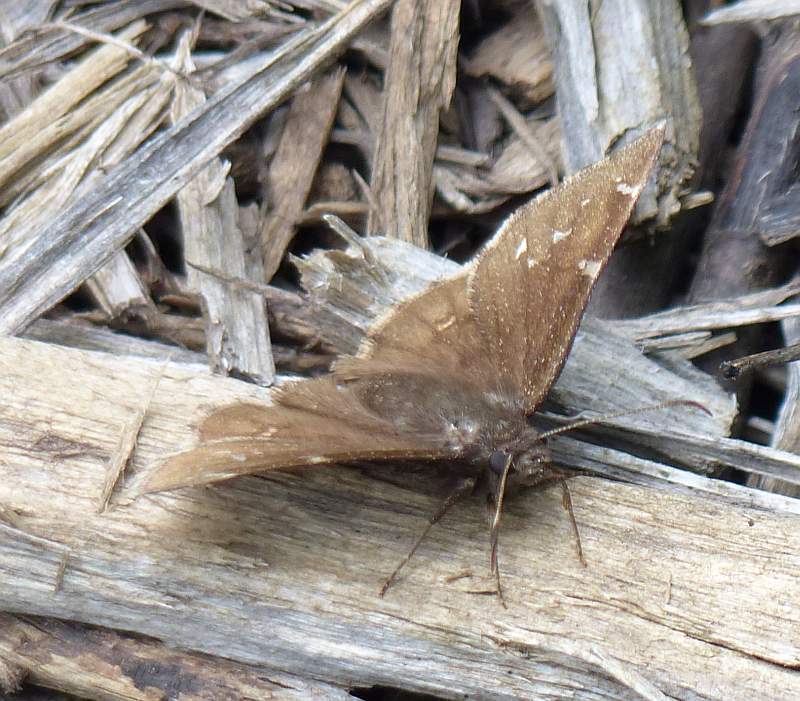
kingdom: Animalia
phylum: Arthropoda
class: Insecta
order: Lepidoptera
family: Hesperiidae
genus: Thorybes
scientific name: Thorybes pylades
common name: Northern cloudywing
